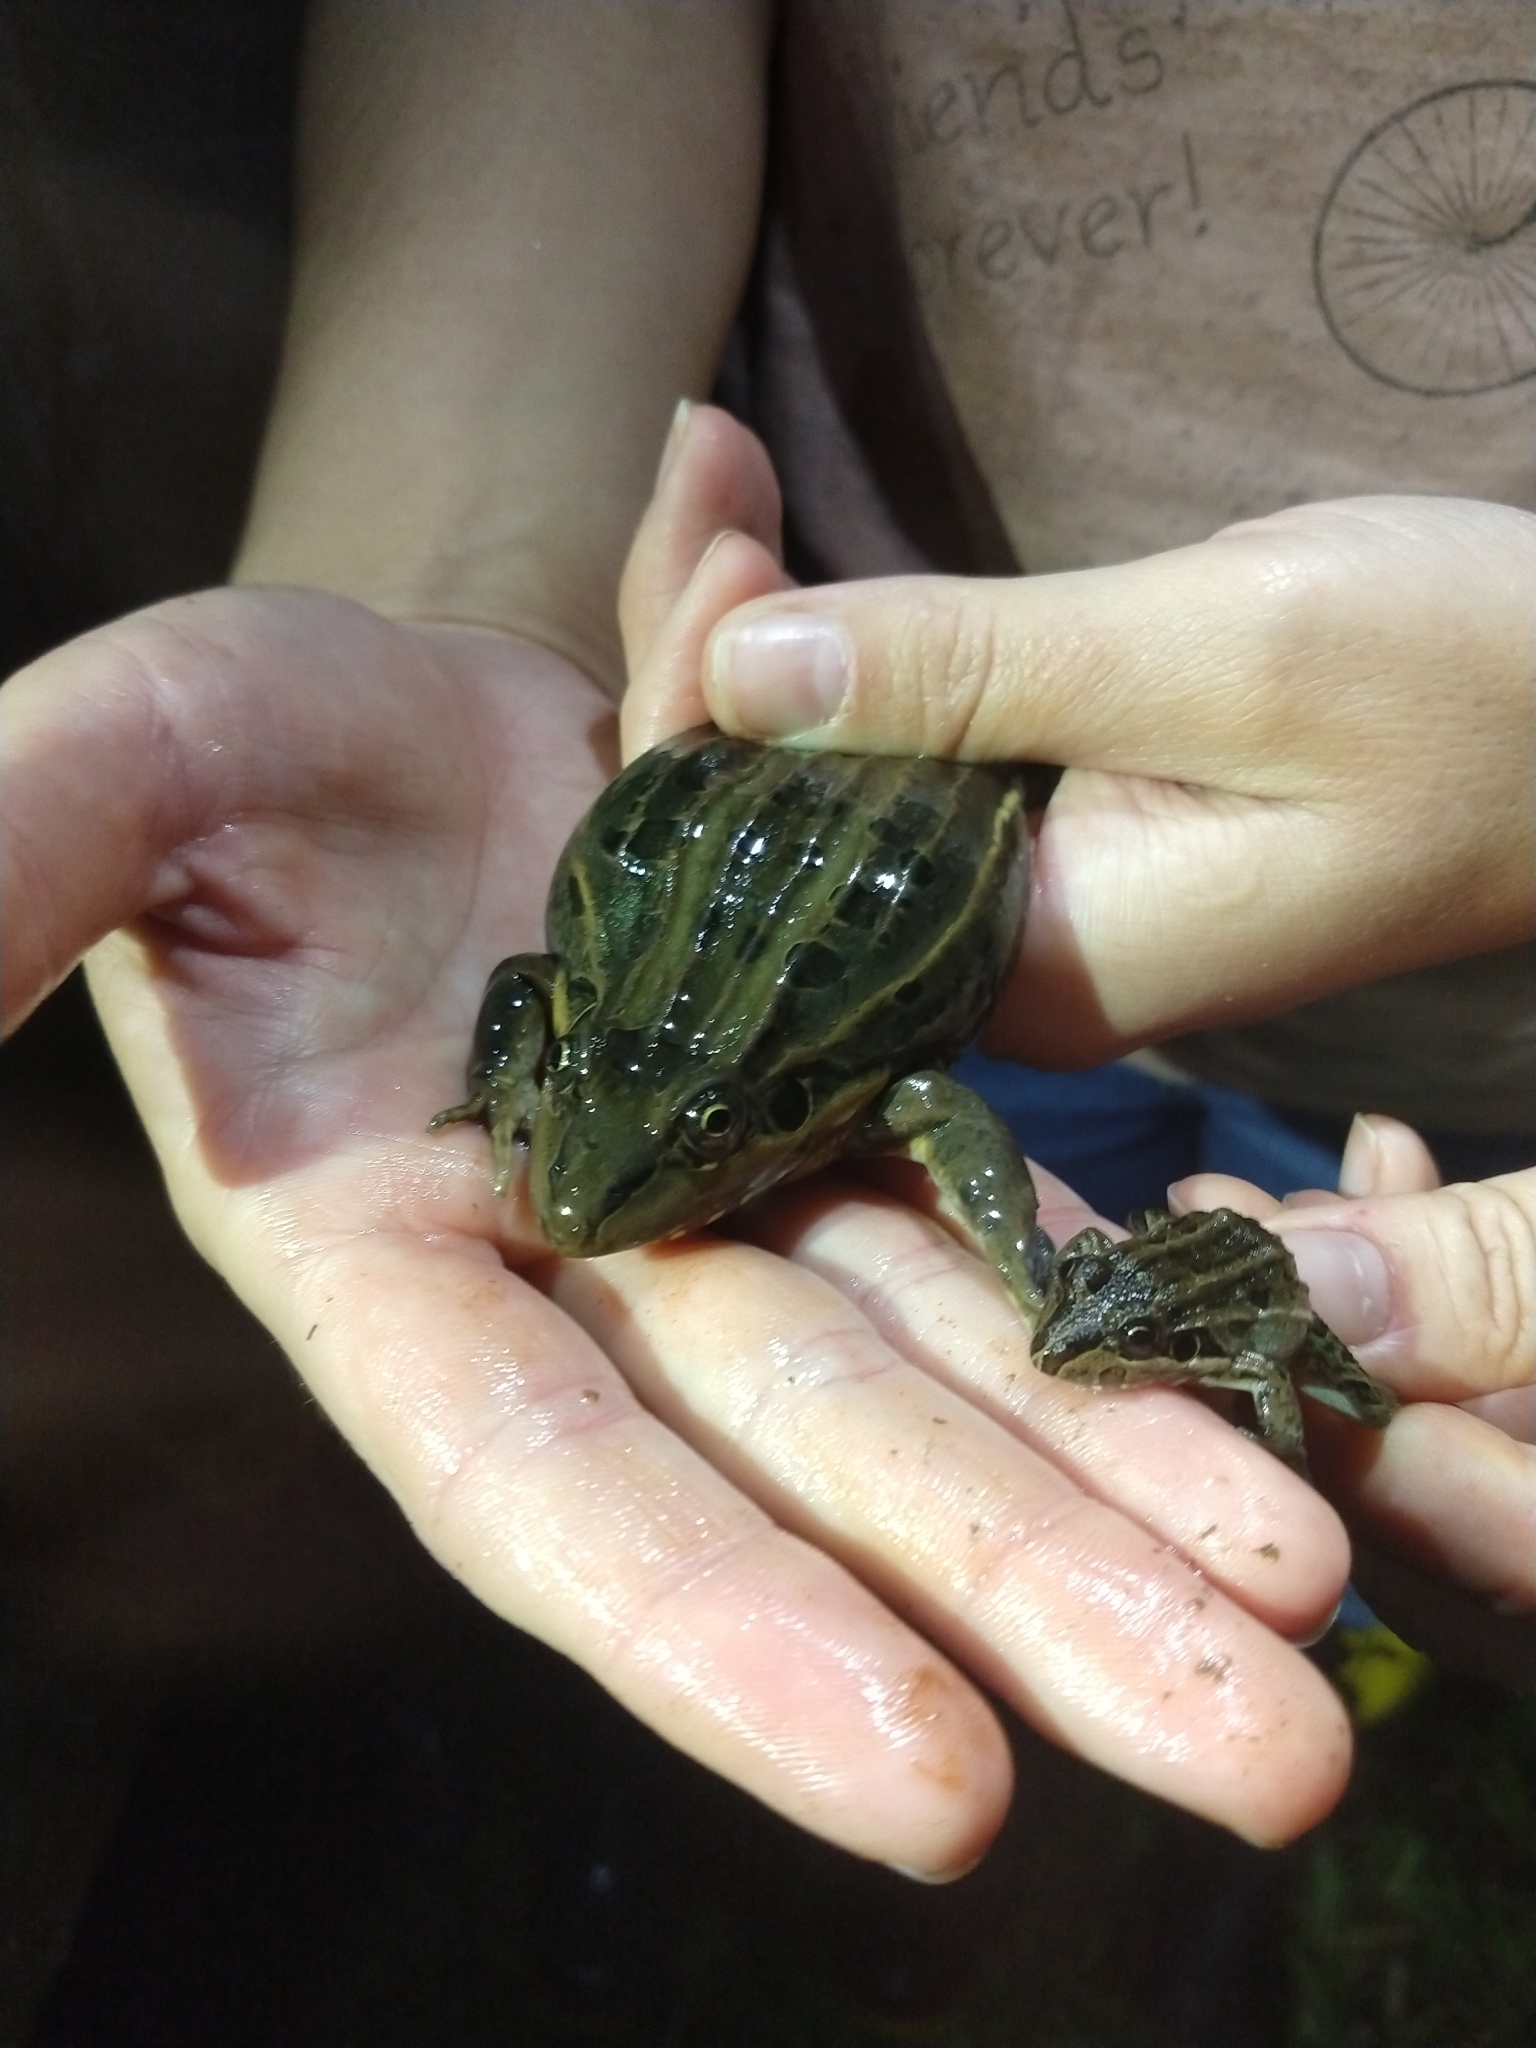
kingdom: Animalia
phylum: Chordata
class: Amphibia
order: Anura
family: Leptodactylidae
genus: Leptodactylus
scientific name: Leptodactylus luctator
